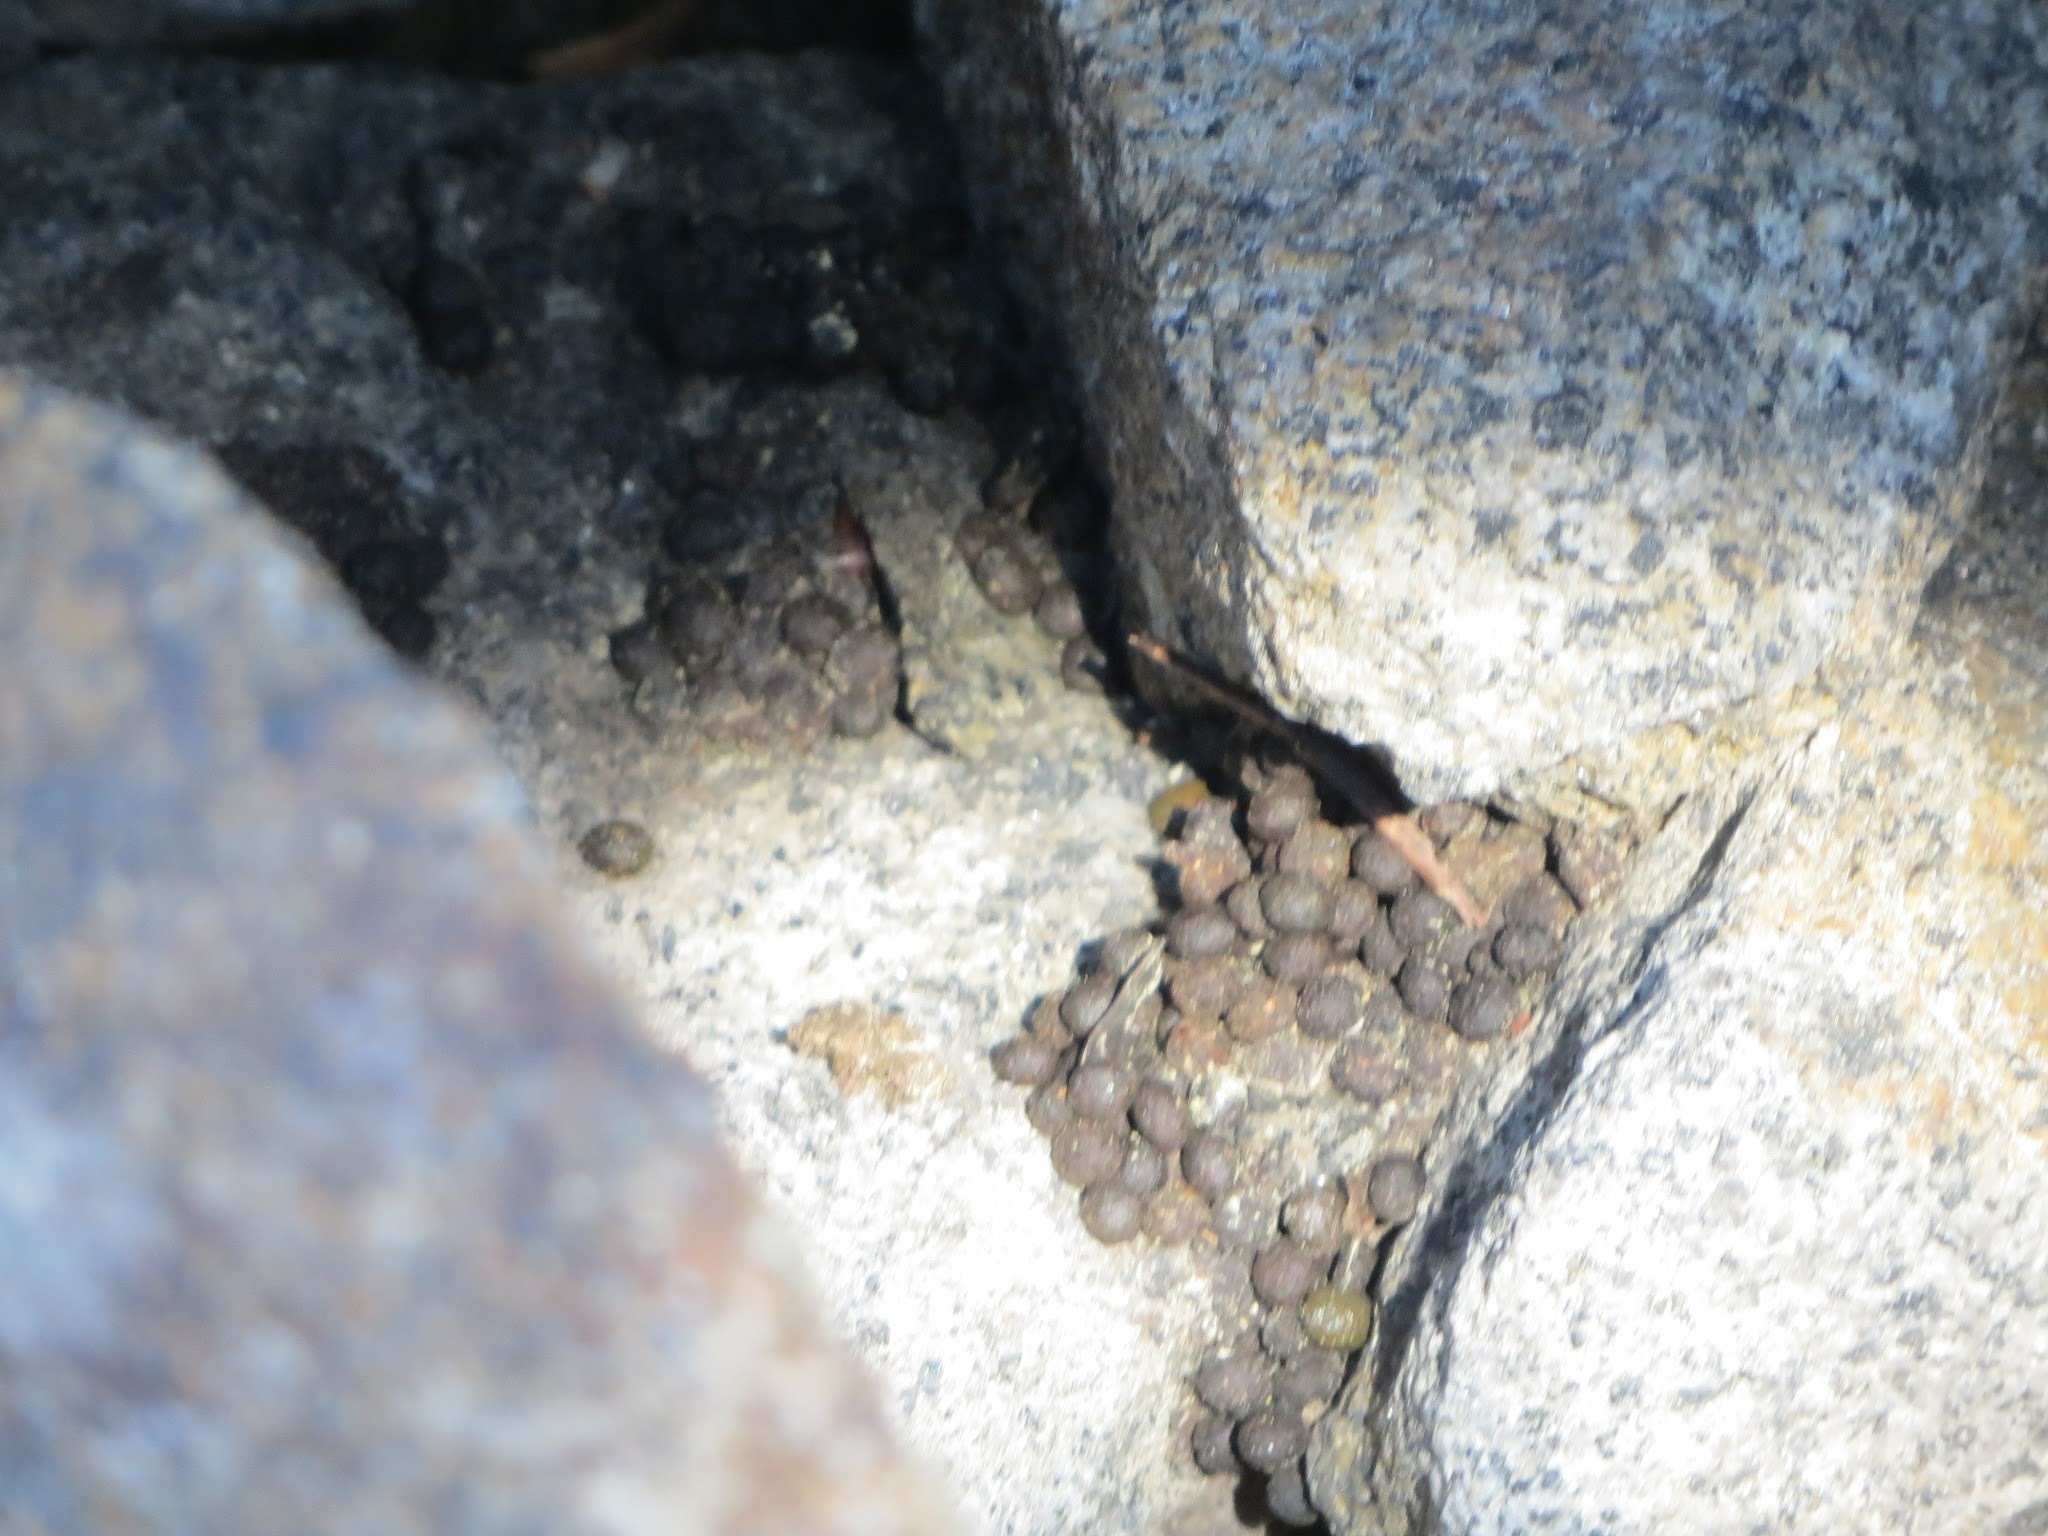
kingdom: Animalia
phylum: Chordata
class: Mammalia
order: Lagomorpha
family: Ochotonidae
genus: Ochotona
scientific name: Ochotona princeps
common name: American pika
